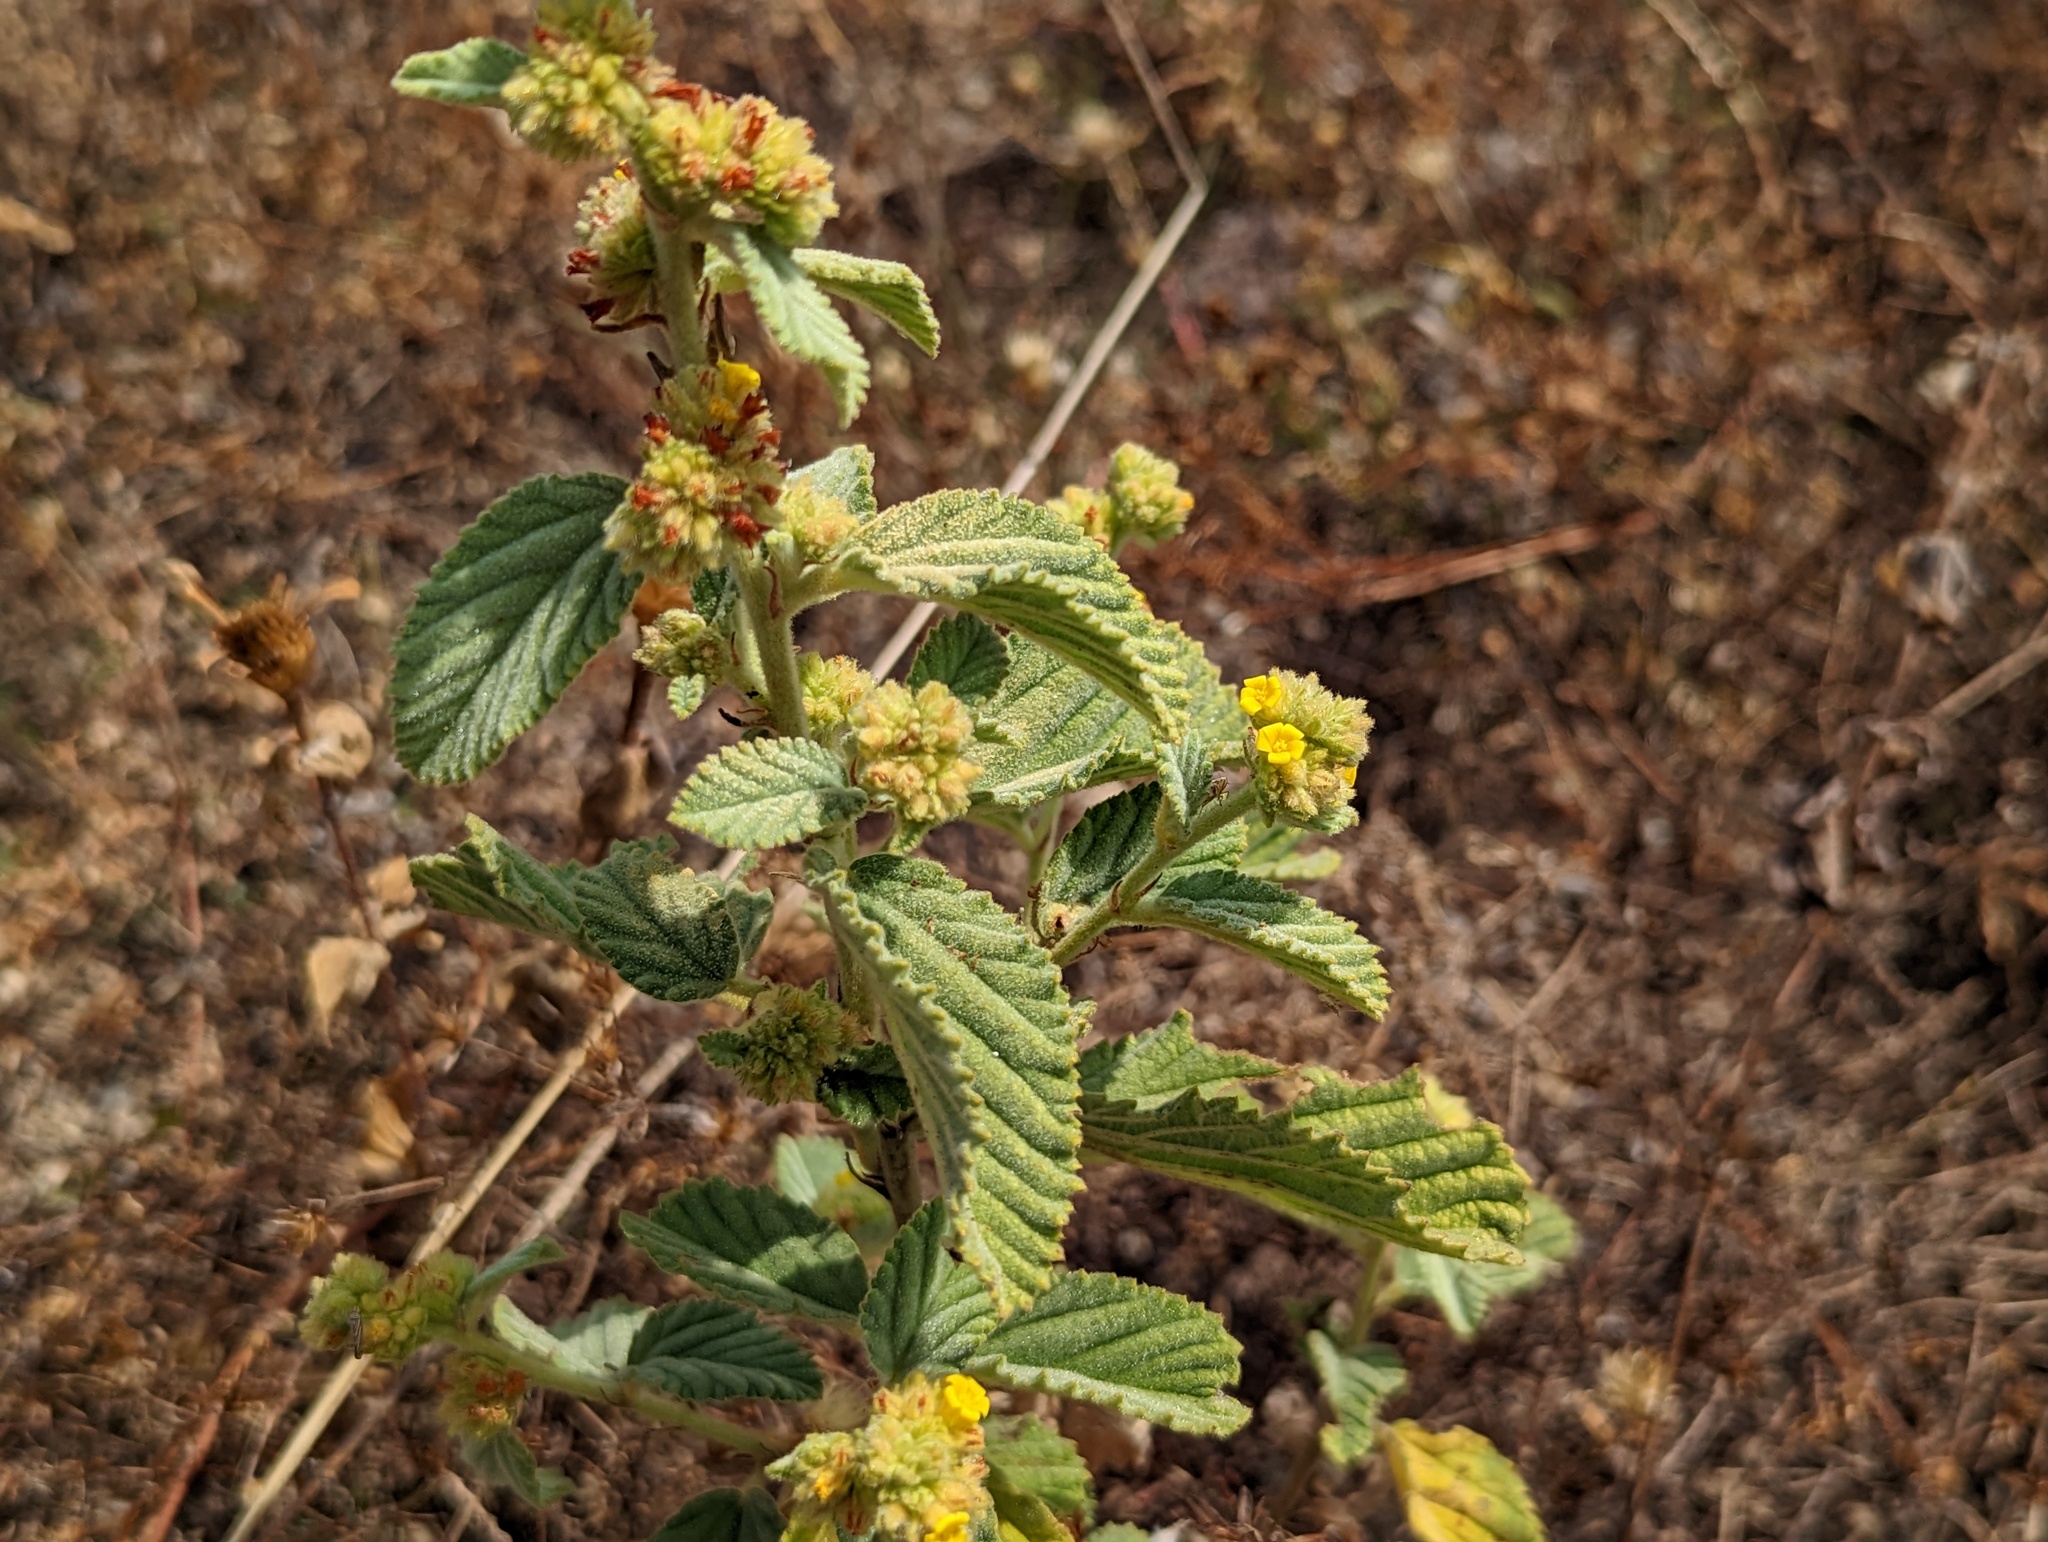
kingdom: Plantae
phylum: Tracheophyta
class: Magnoliopsida
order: Malvales
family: Malvaceae
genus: Waltheria
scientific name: Waltheria indica
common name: Leather-coat
